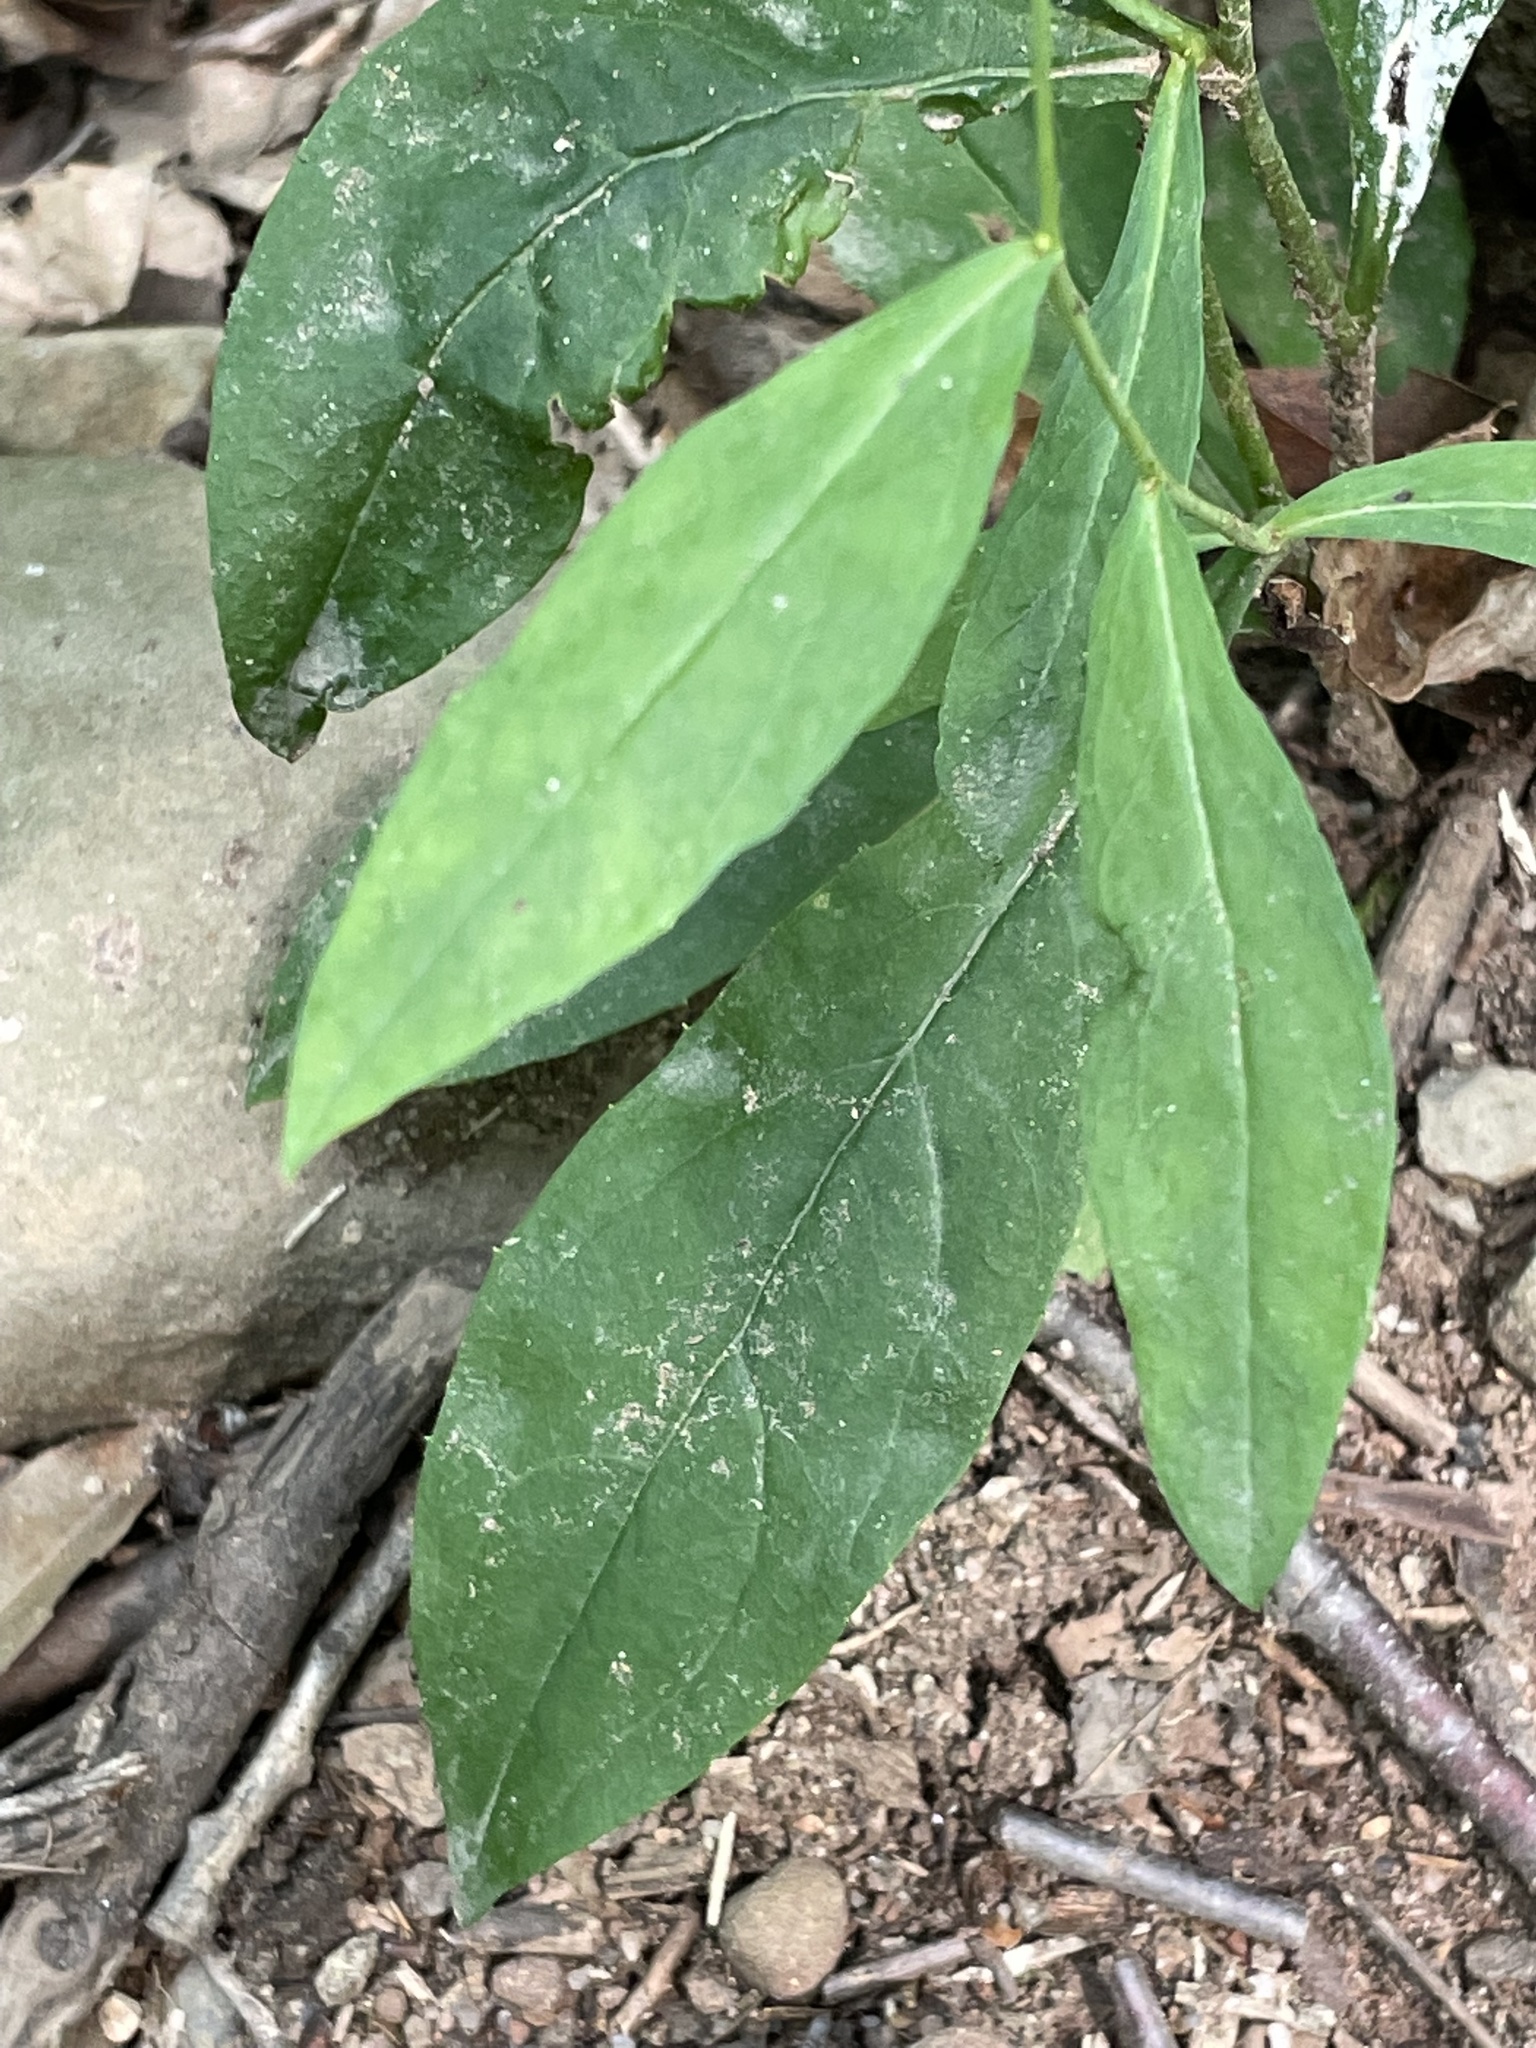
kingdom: Plantae
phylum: Tracheophyta
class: Magnoliopsida
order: Asterales
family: Asteraceae
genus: Hieracium
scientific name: Hieracium paniculatum
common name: Allegheny hawkweed
